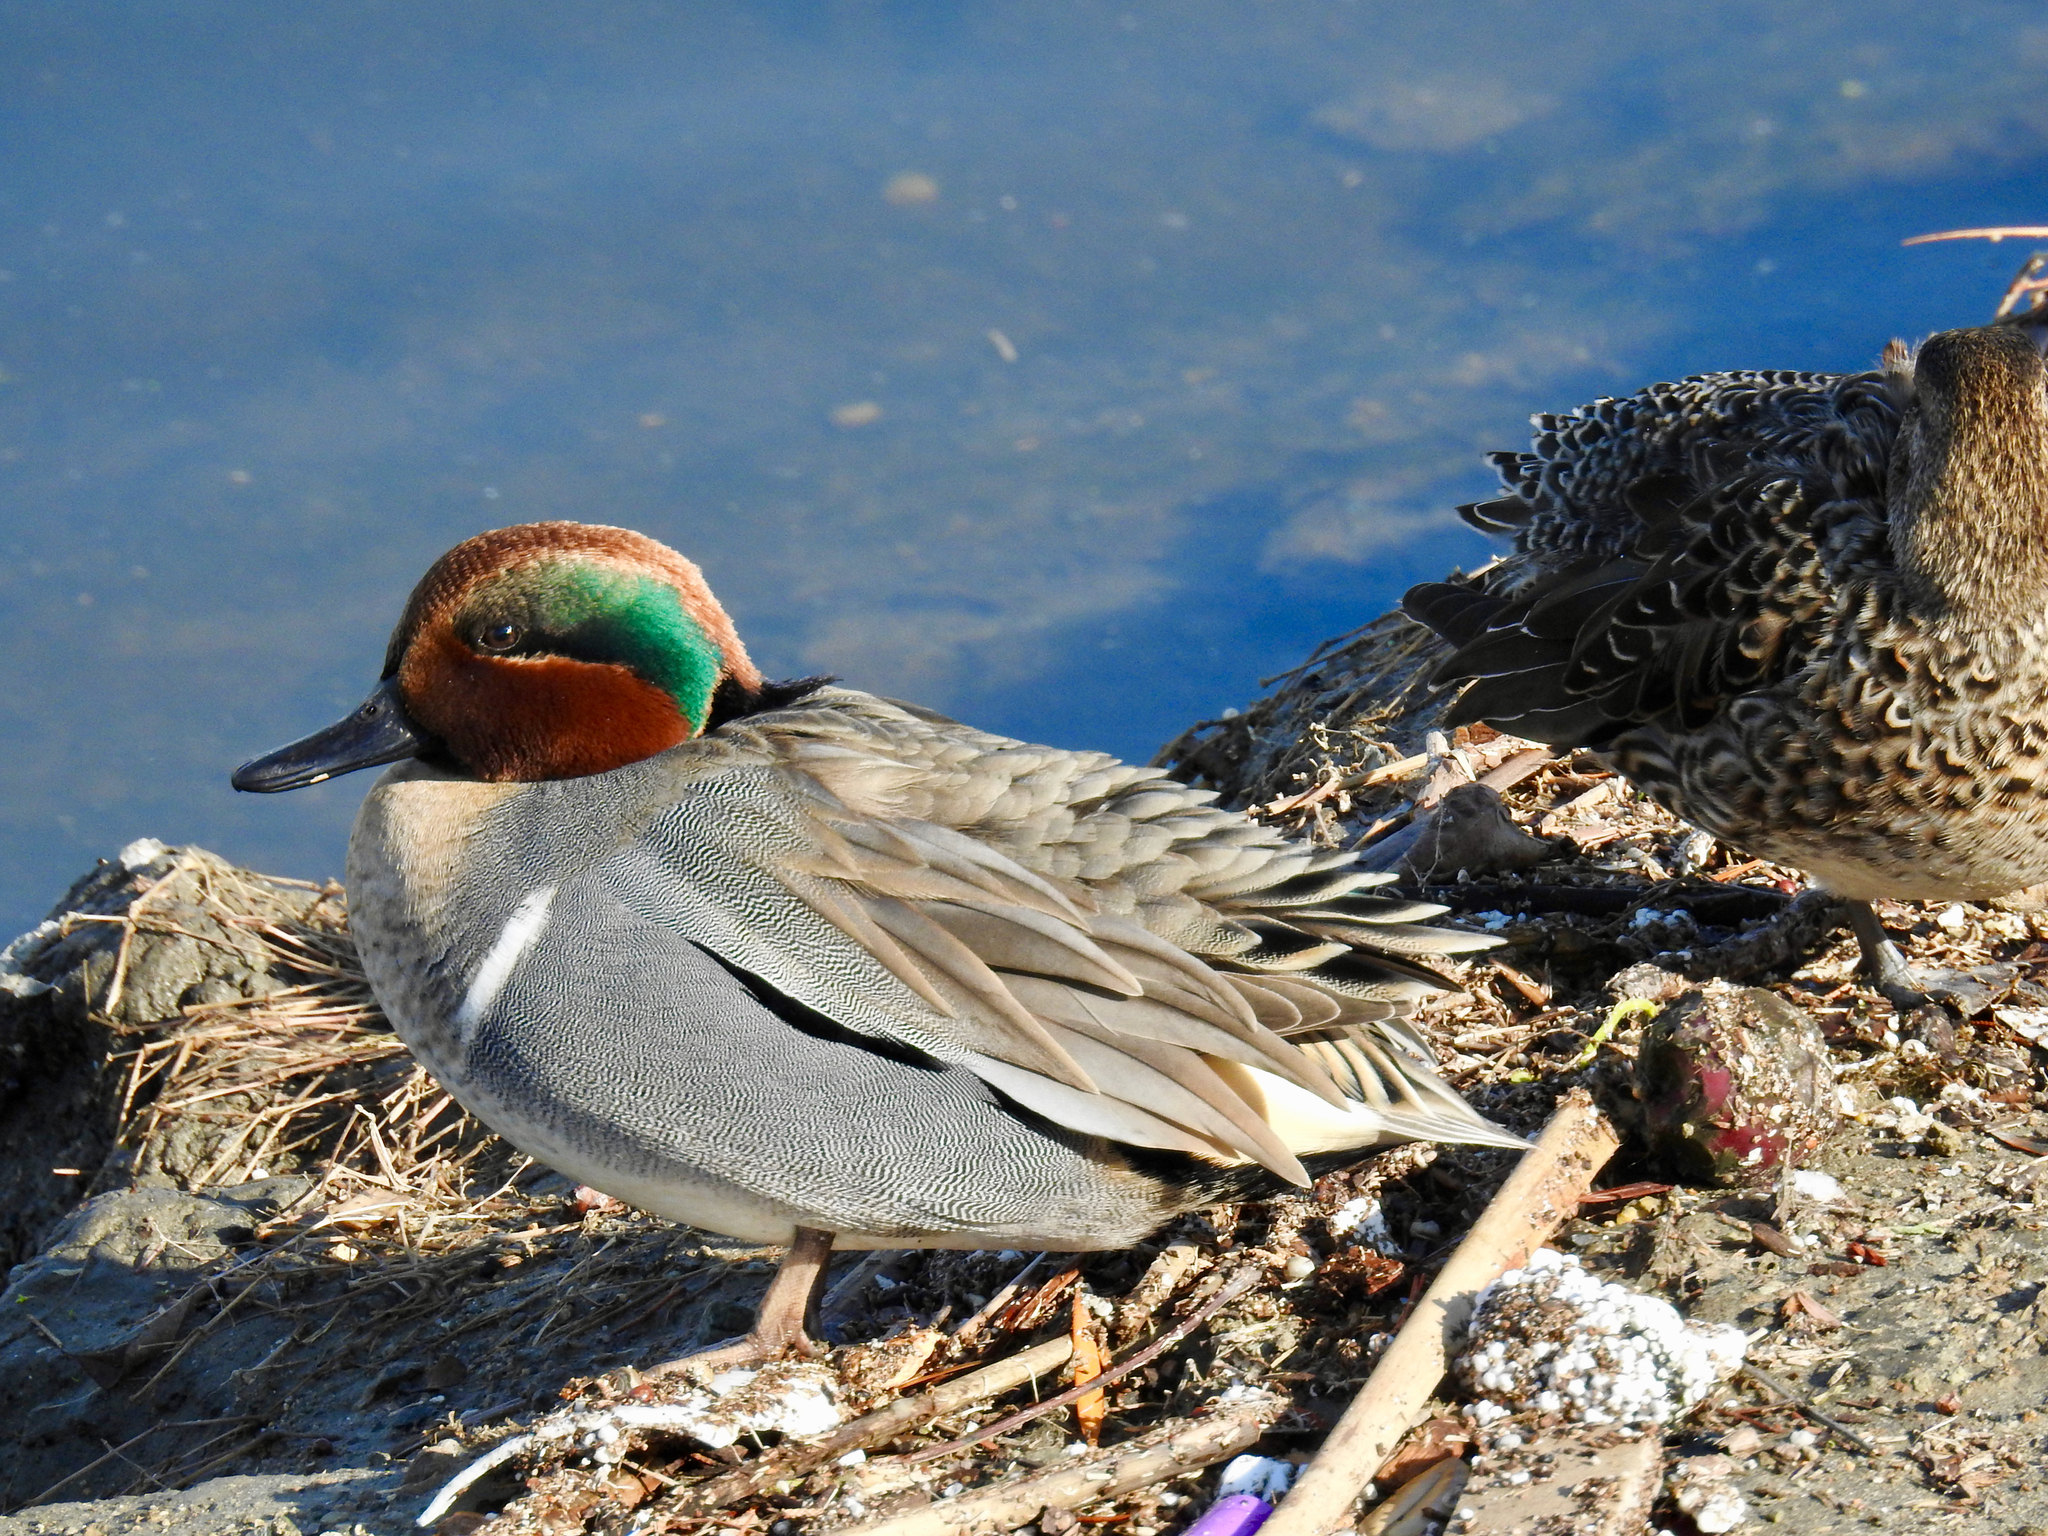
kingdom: Animalia
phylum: Chordata
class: Aves
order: Anseriformes
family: Anatidae
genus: Anas
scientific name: Anas crecca
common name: Eurasian teal
